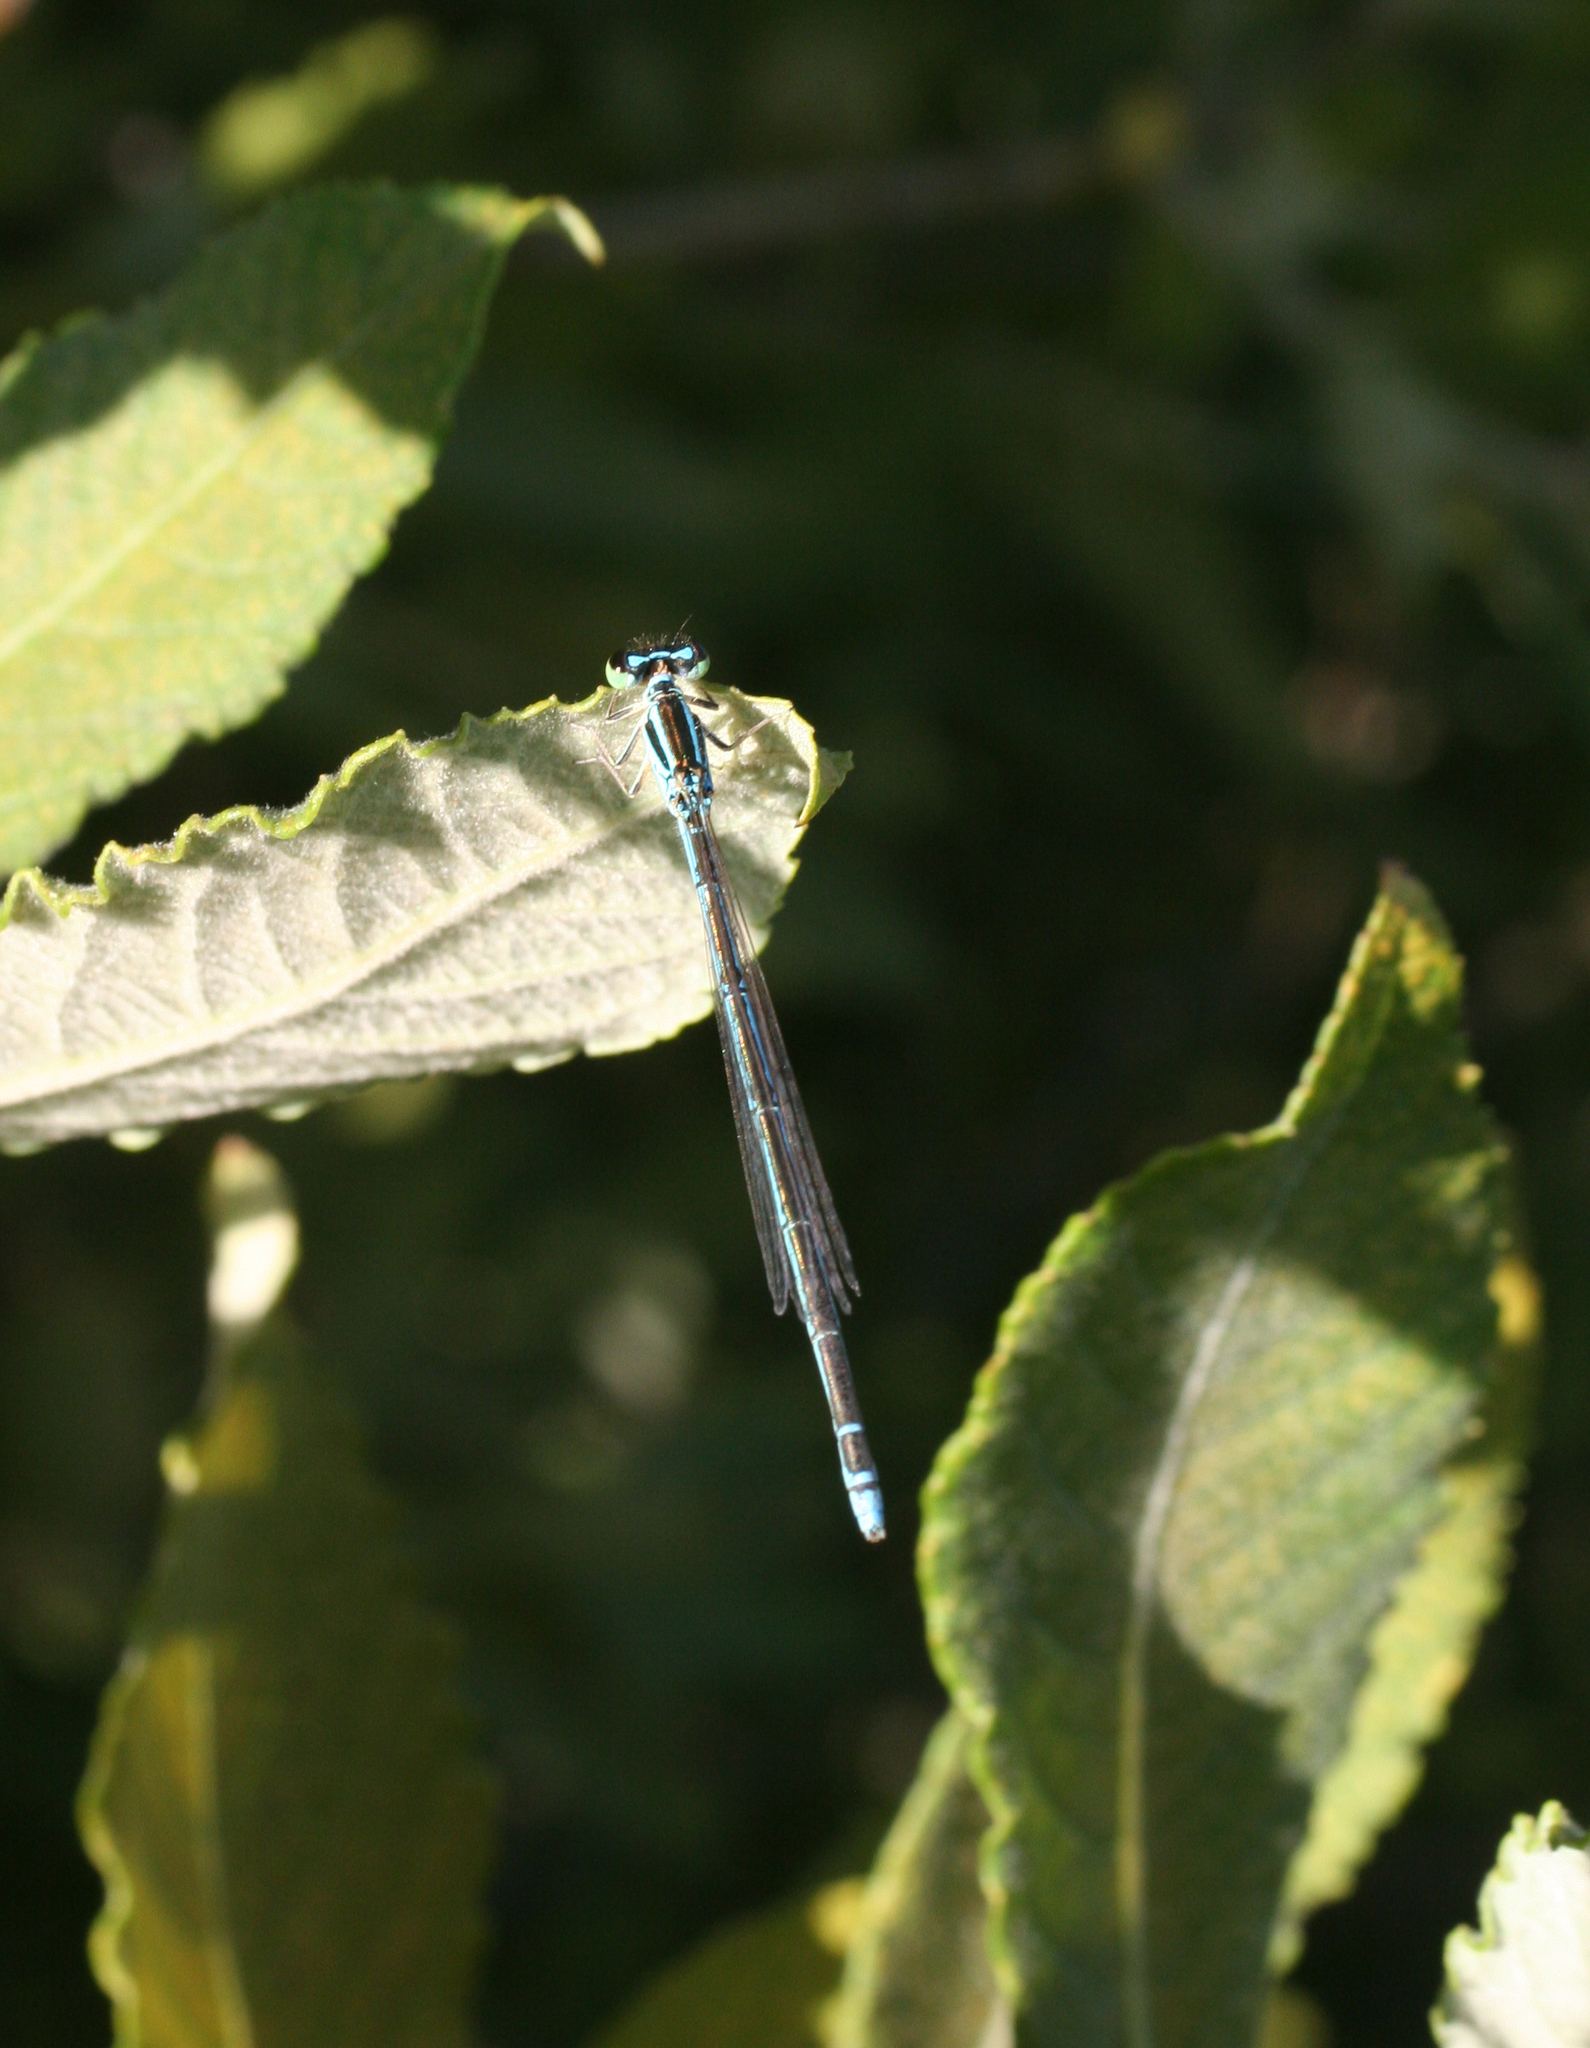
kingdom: Animalia
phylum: Arthropoda
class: Insecta
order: Odonata
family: Coenagrionidae
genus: Coenagrion
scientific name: Coenagrion ecornutum
